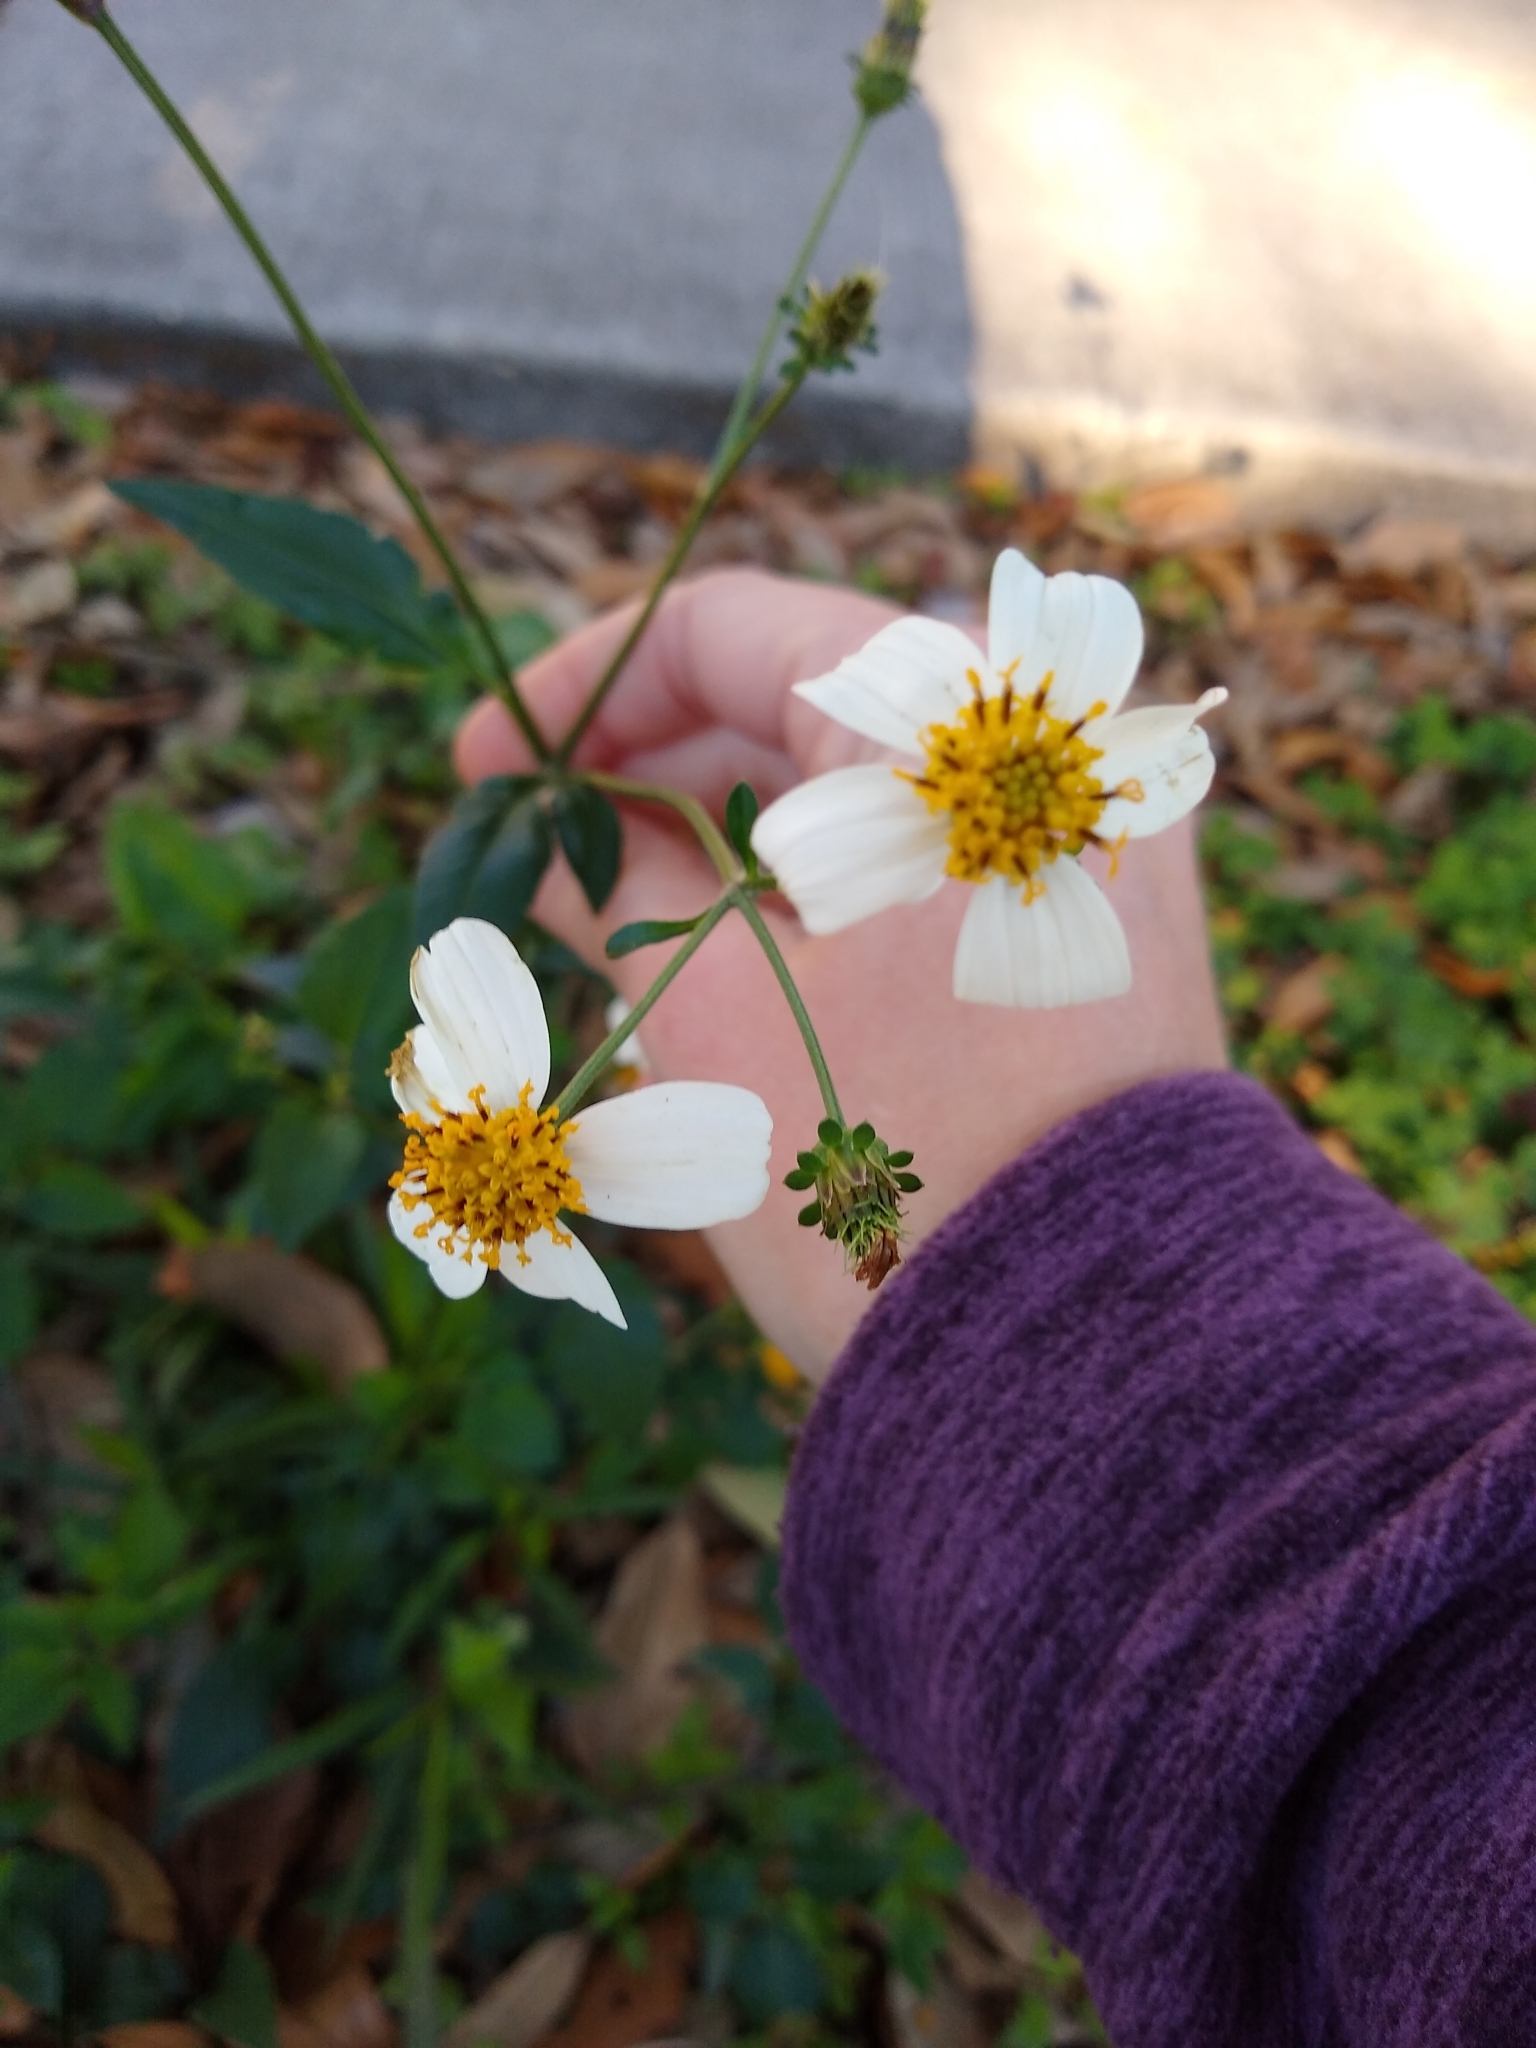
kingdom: Plantae
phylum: Tracheophyta
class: Magnoliopsida
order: Asterales
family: Asteraceae
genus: Bidens
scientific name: Bidens alba
